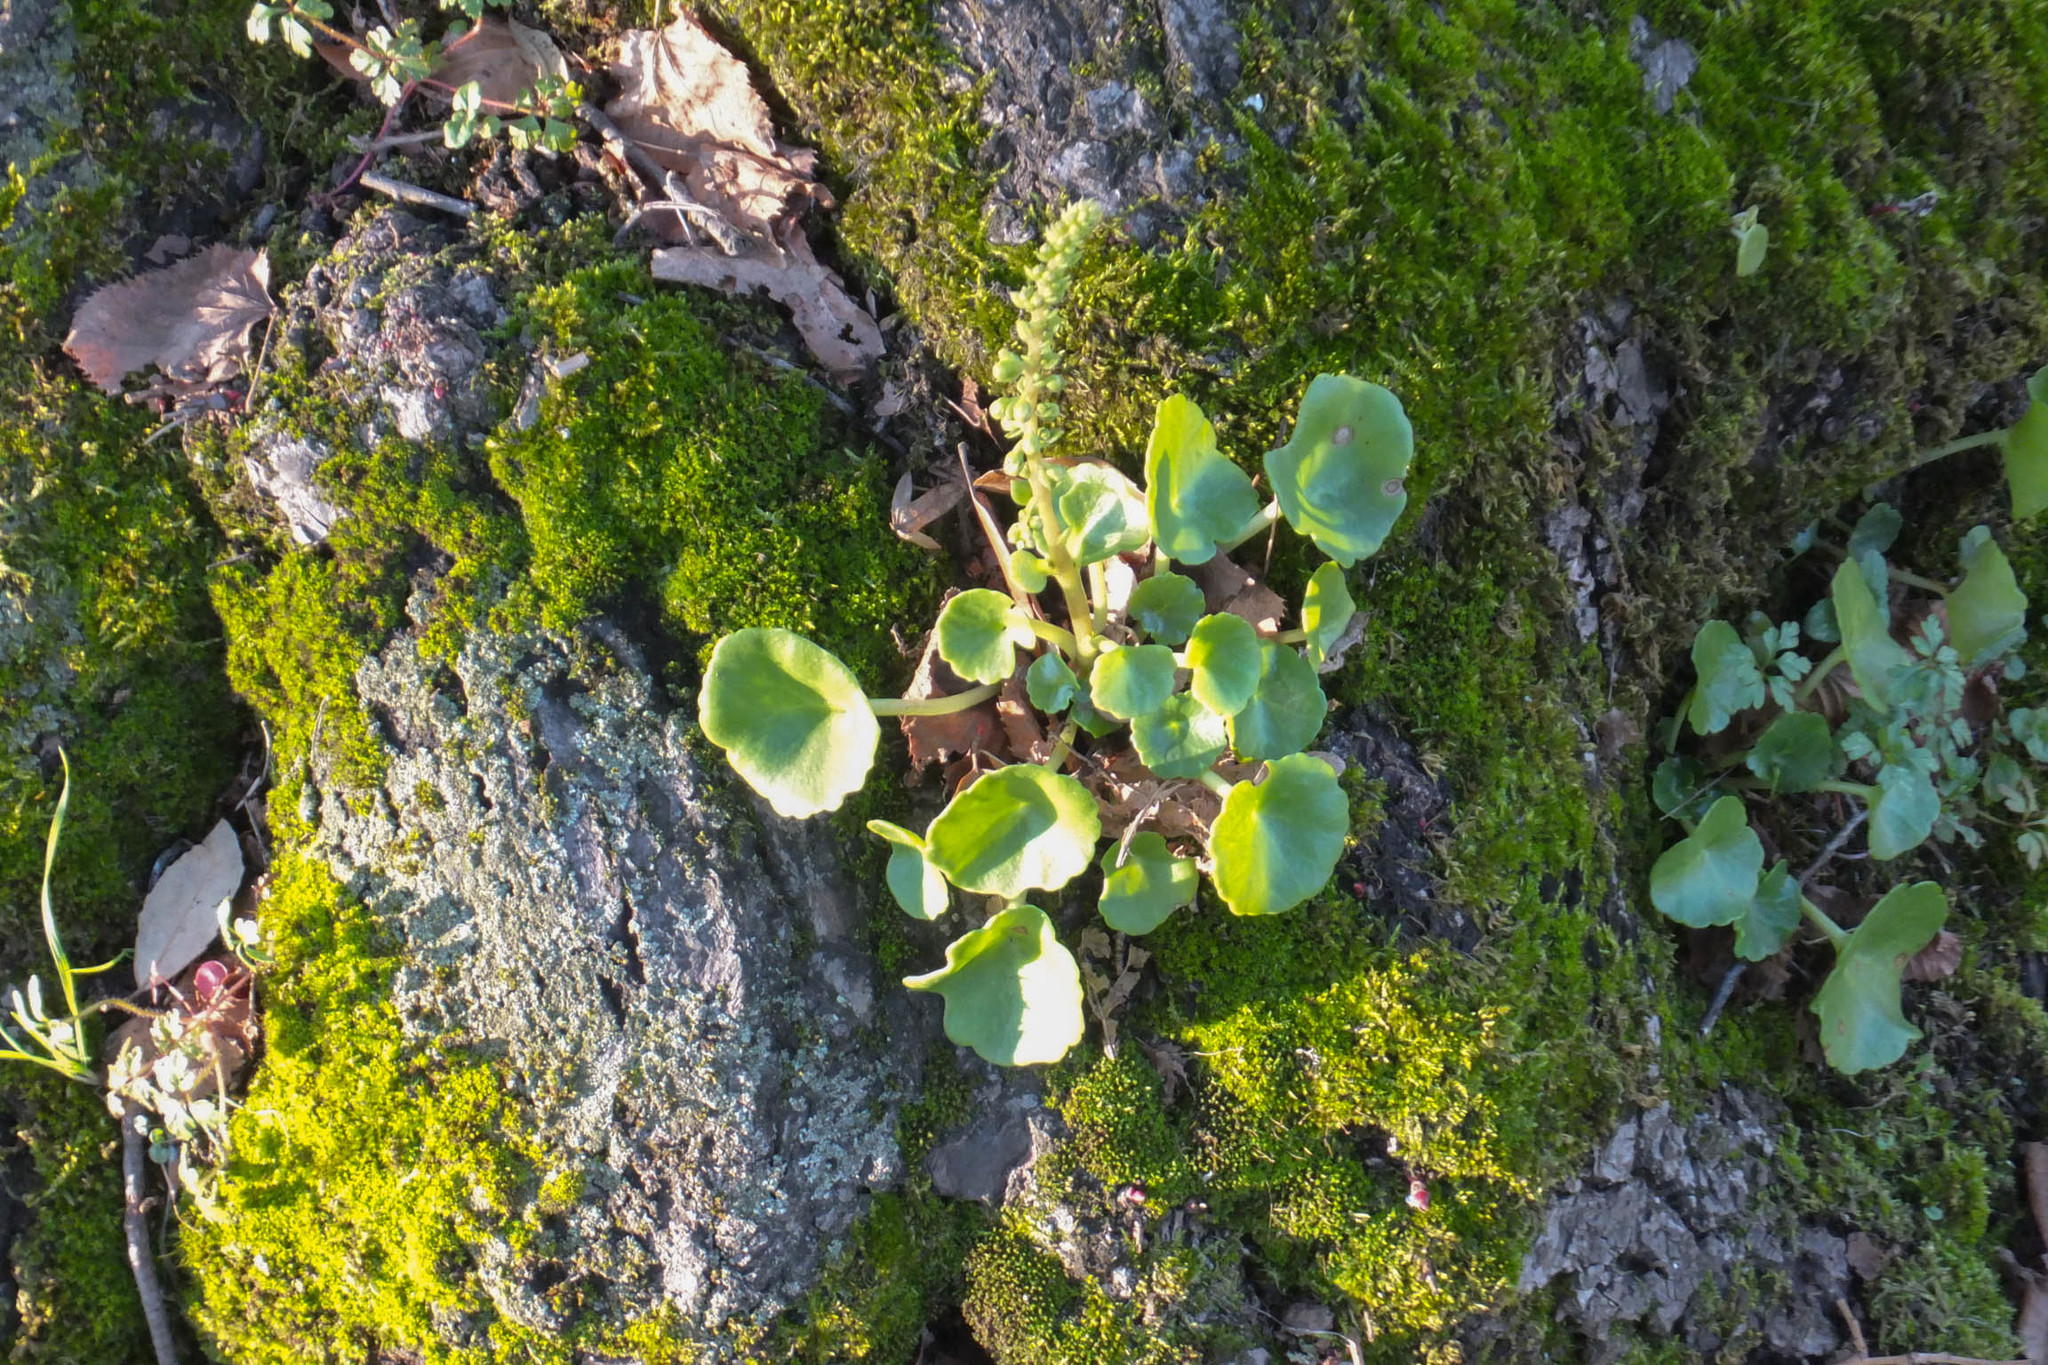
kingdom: Plantae
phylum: Tracheophyta
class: Magnoliopsida
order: Saxifragales
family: Crassulaceae
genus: Umbilicus
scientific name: Umbilicus rupestris
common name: Navelwort
